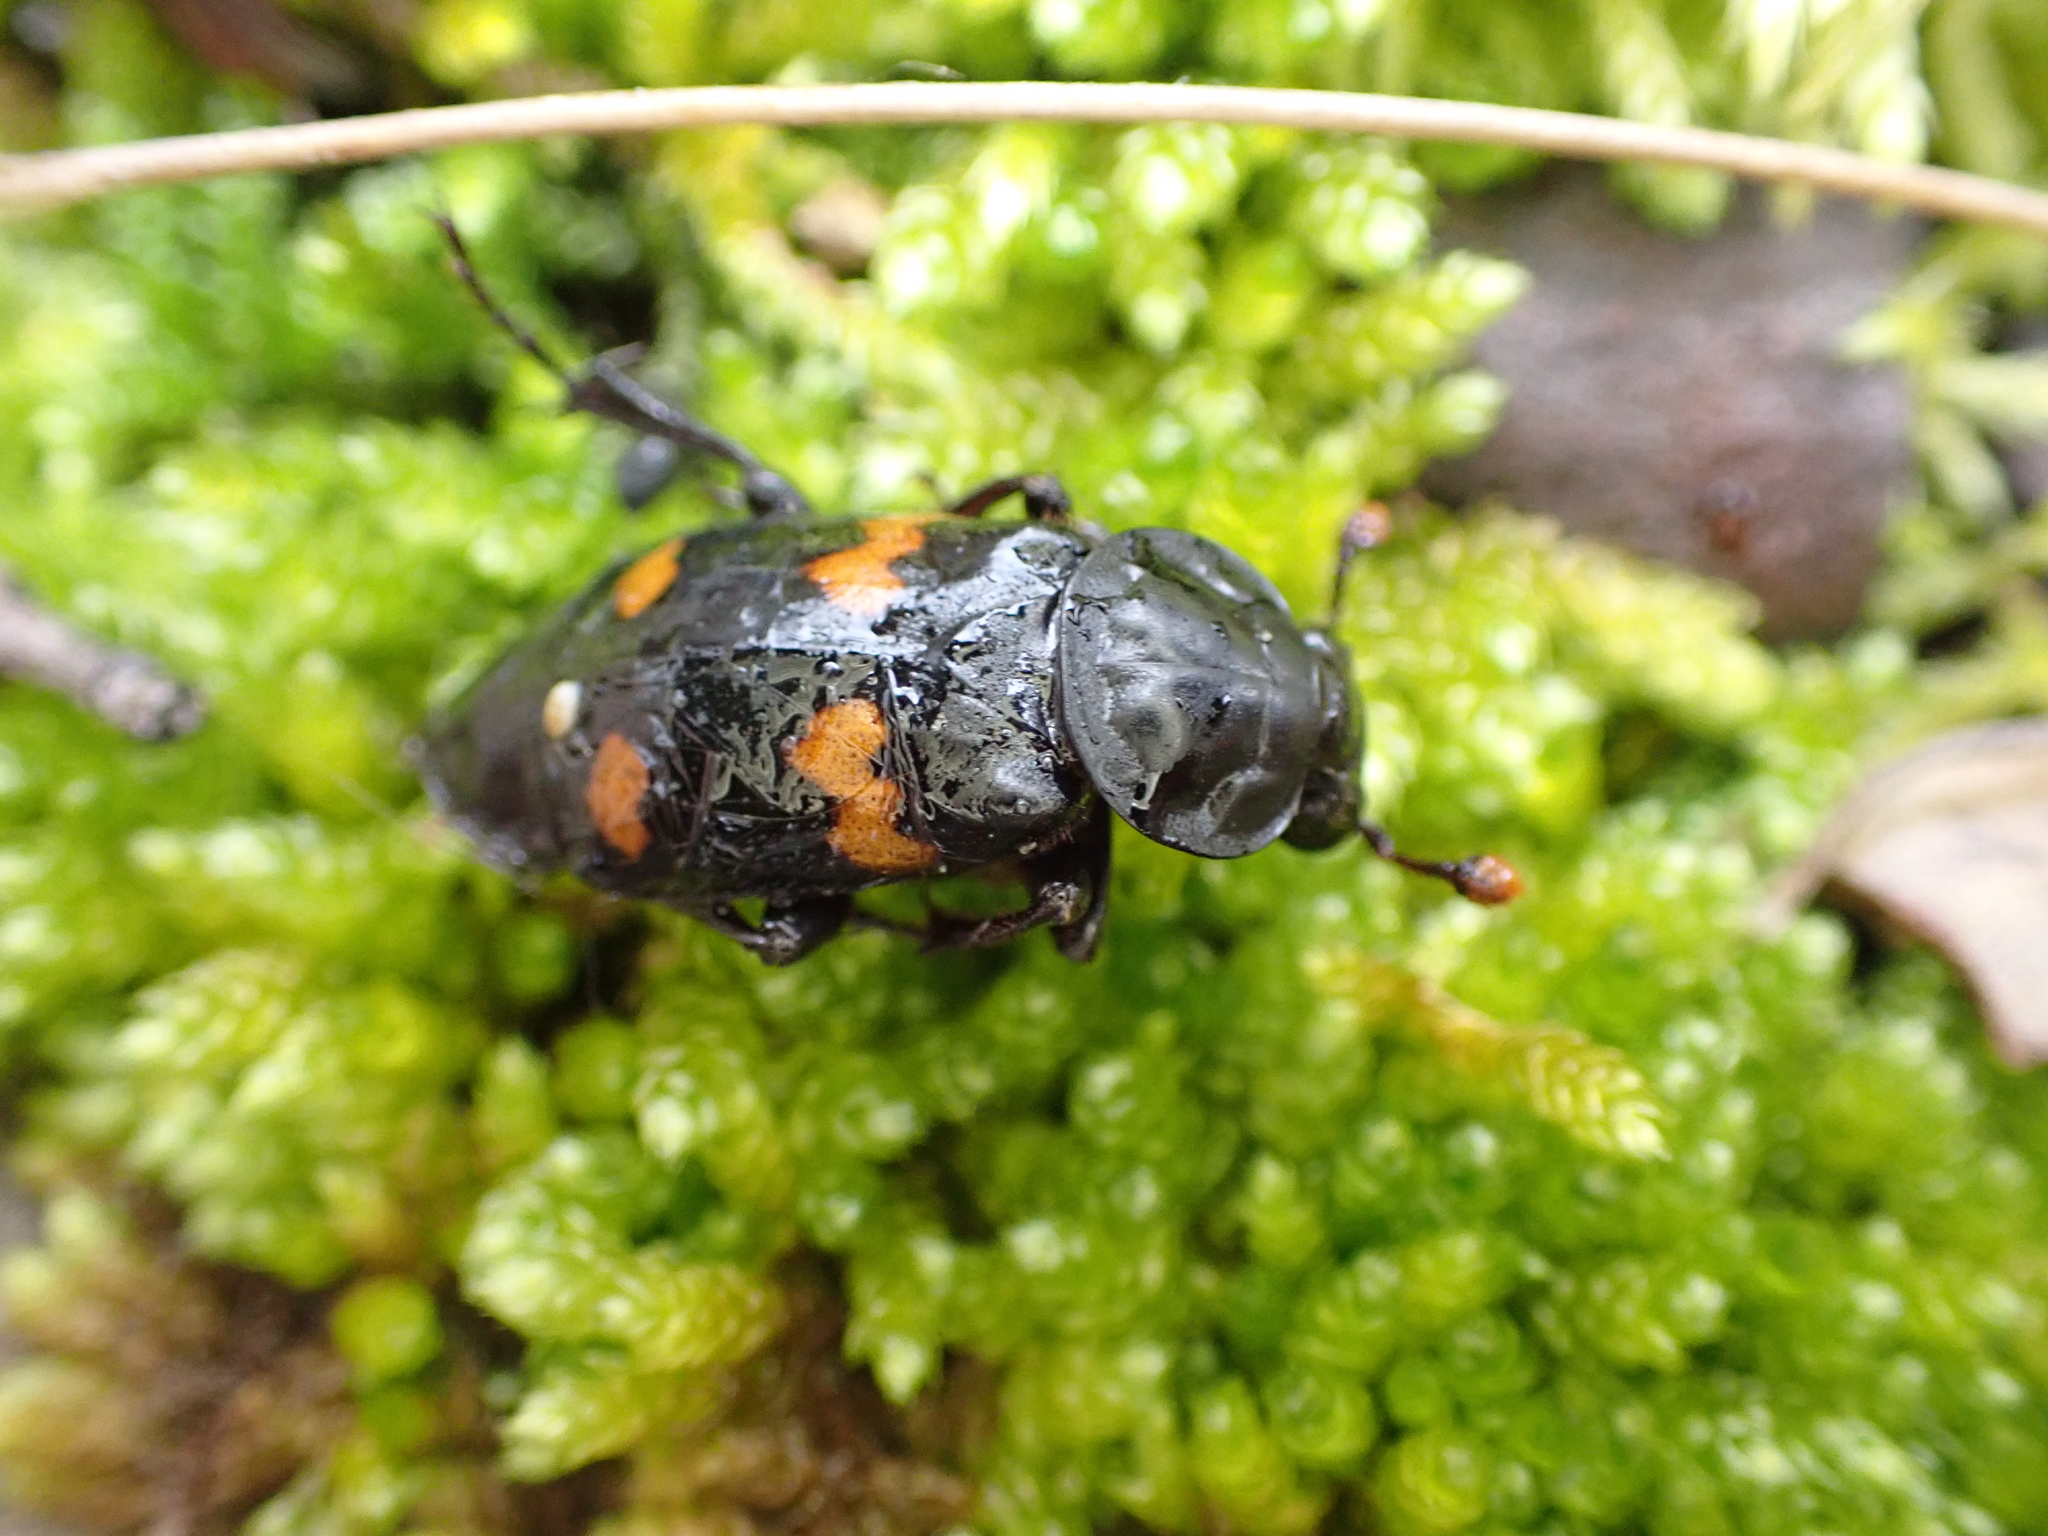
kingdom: Animalia
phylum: Arthropoda
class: Insecta
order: Coleoptera
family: Staphylinidae
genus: Nicrophorus
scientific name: Nicrophorus orbicollis
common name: Roundneck sexton beetle
